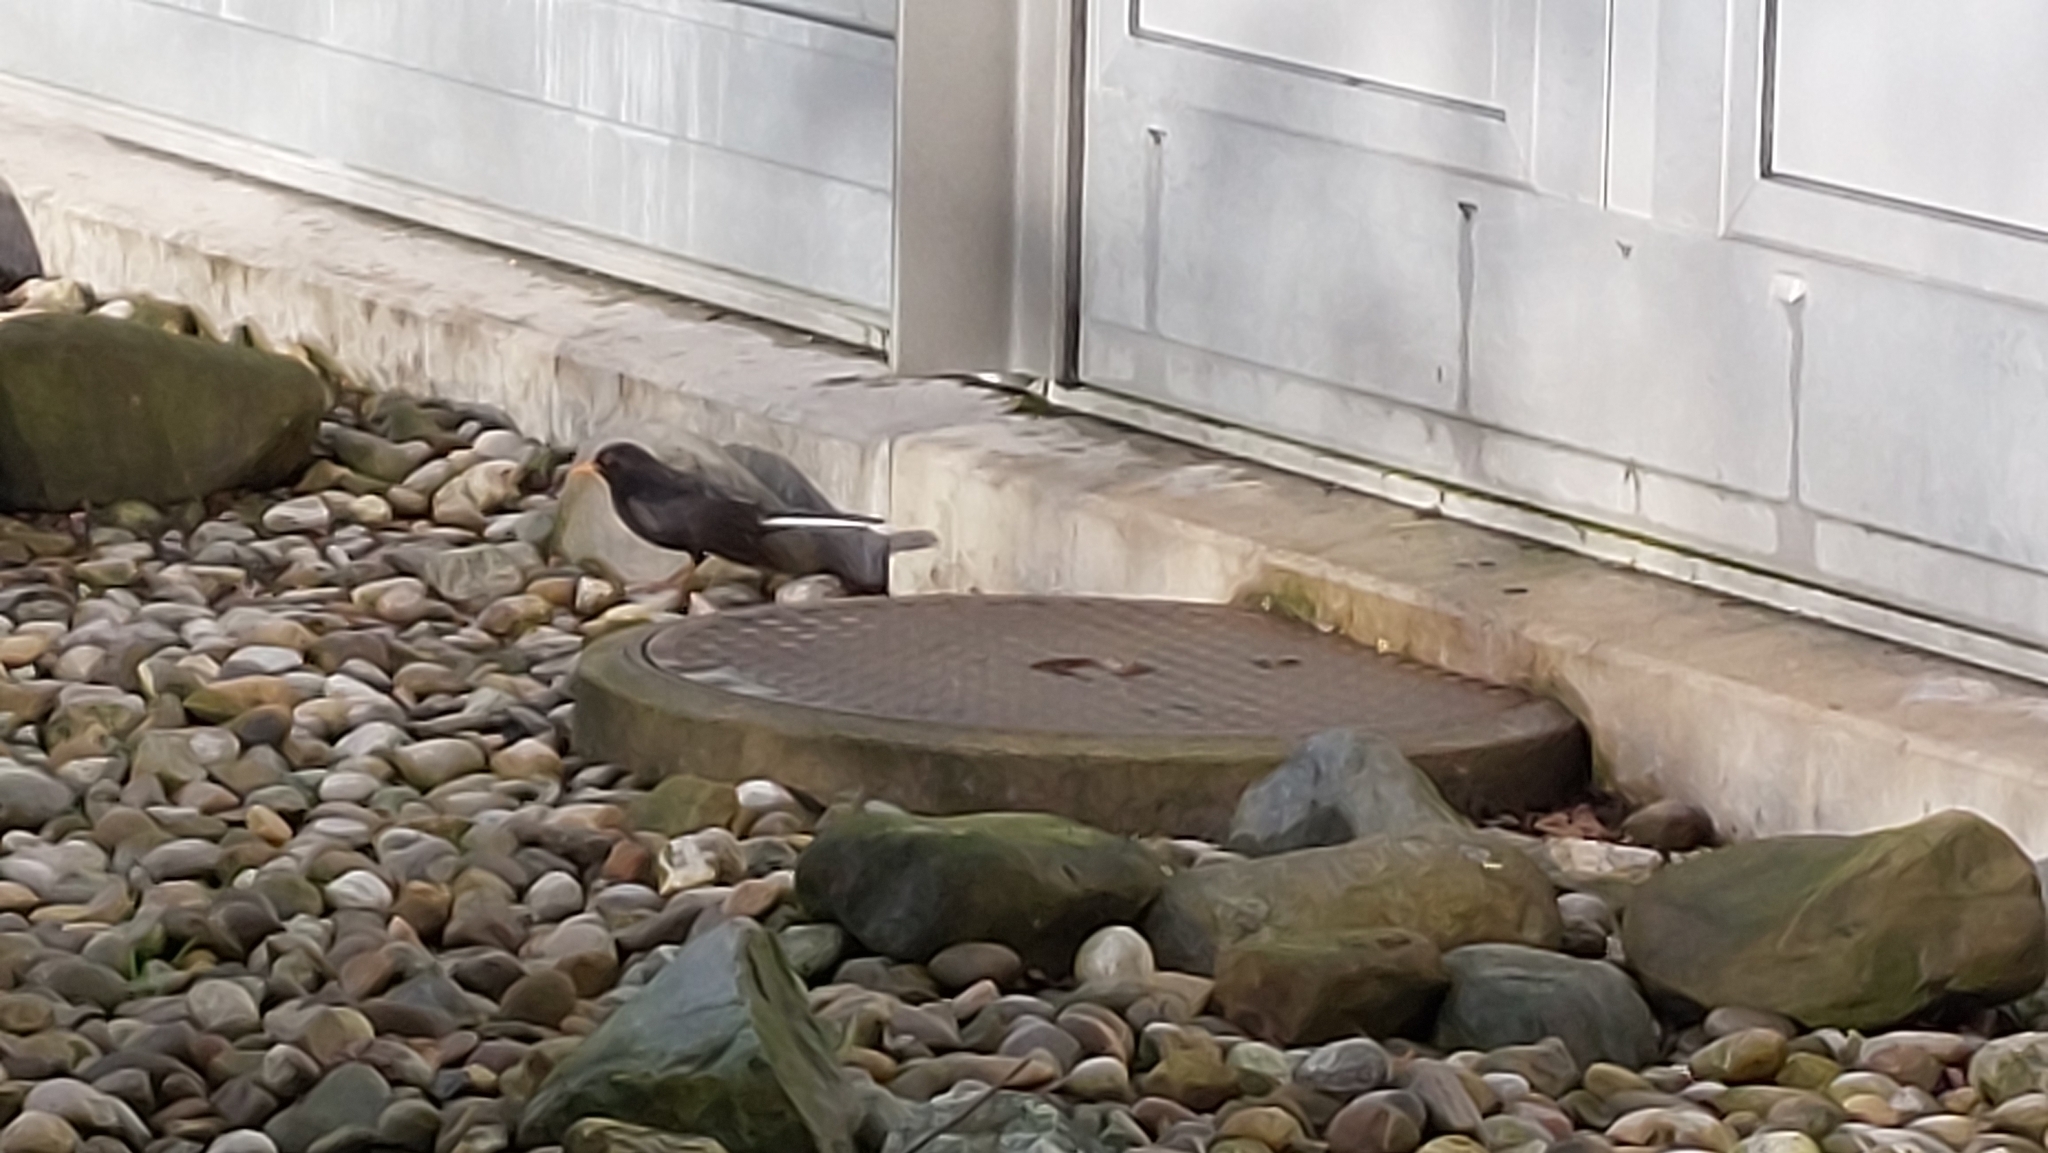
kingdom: Animalia
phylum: Chordata
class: Aves
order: Passeriformes
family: Turdidae
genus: Turdus
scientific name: Turdus merula
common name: Common blackbird
